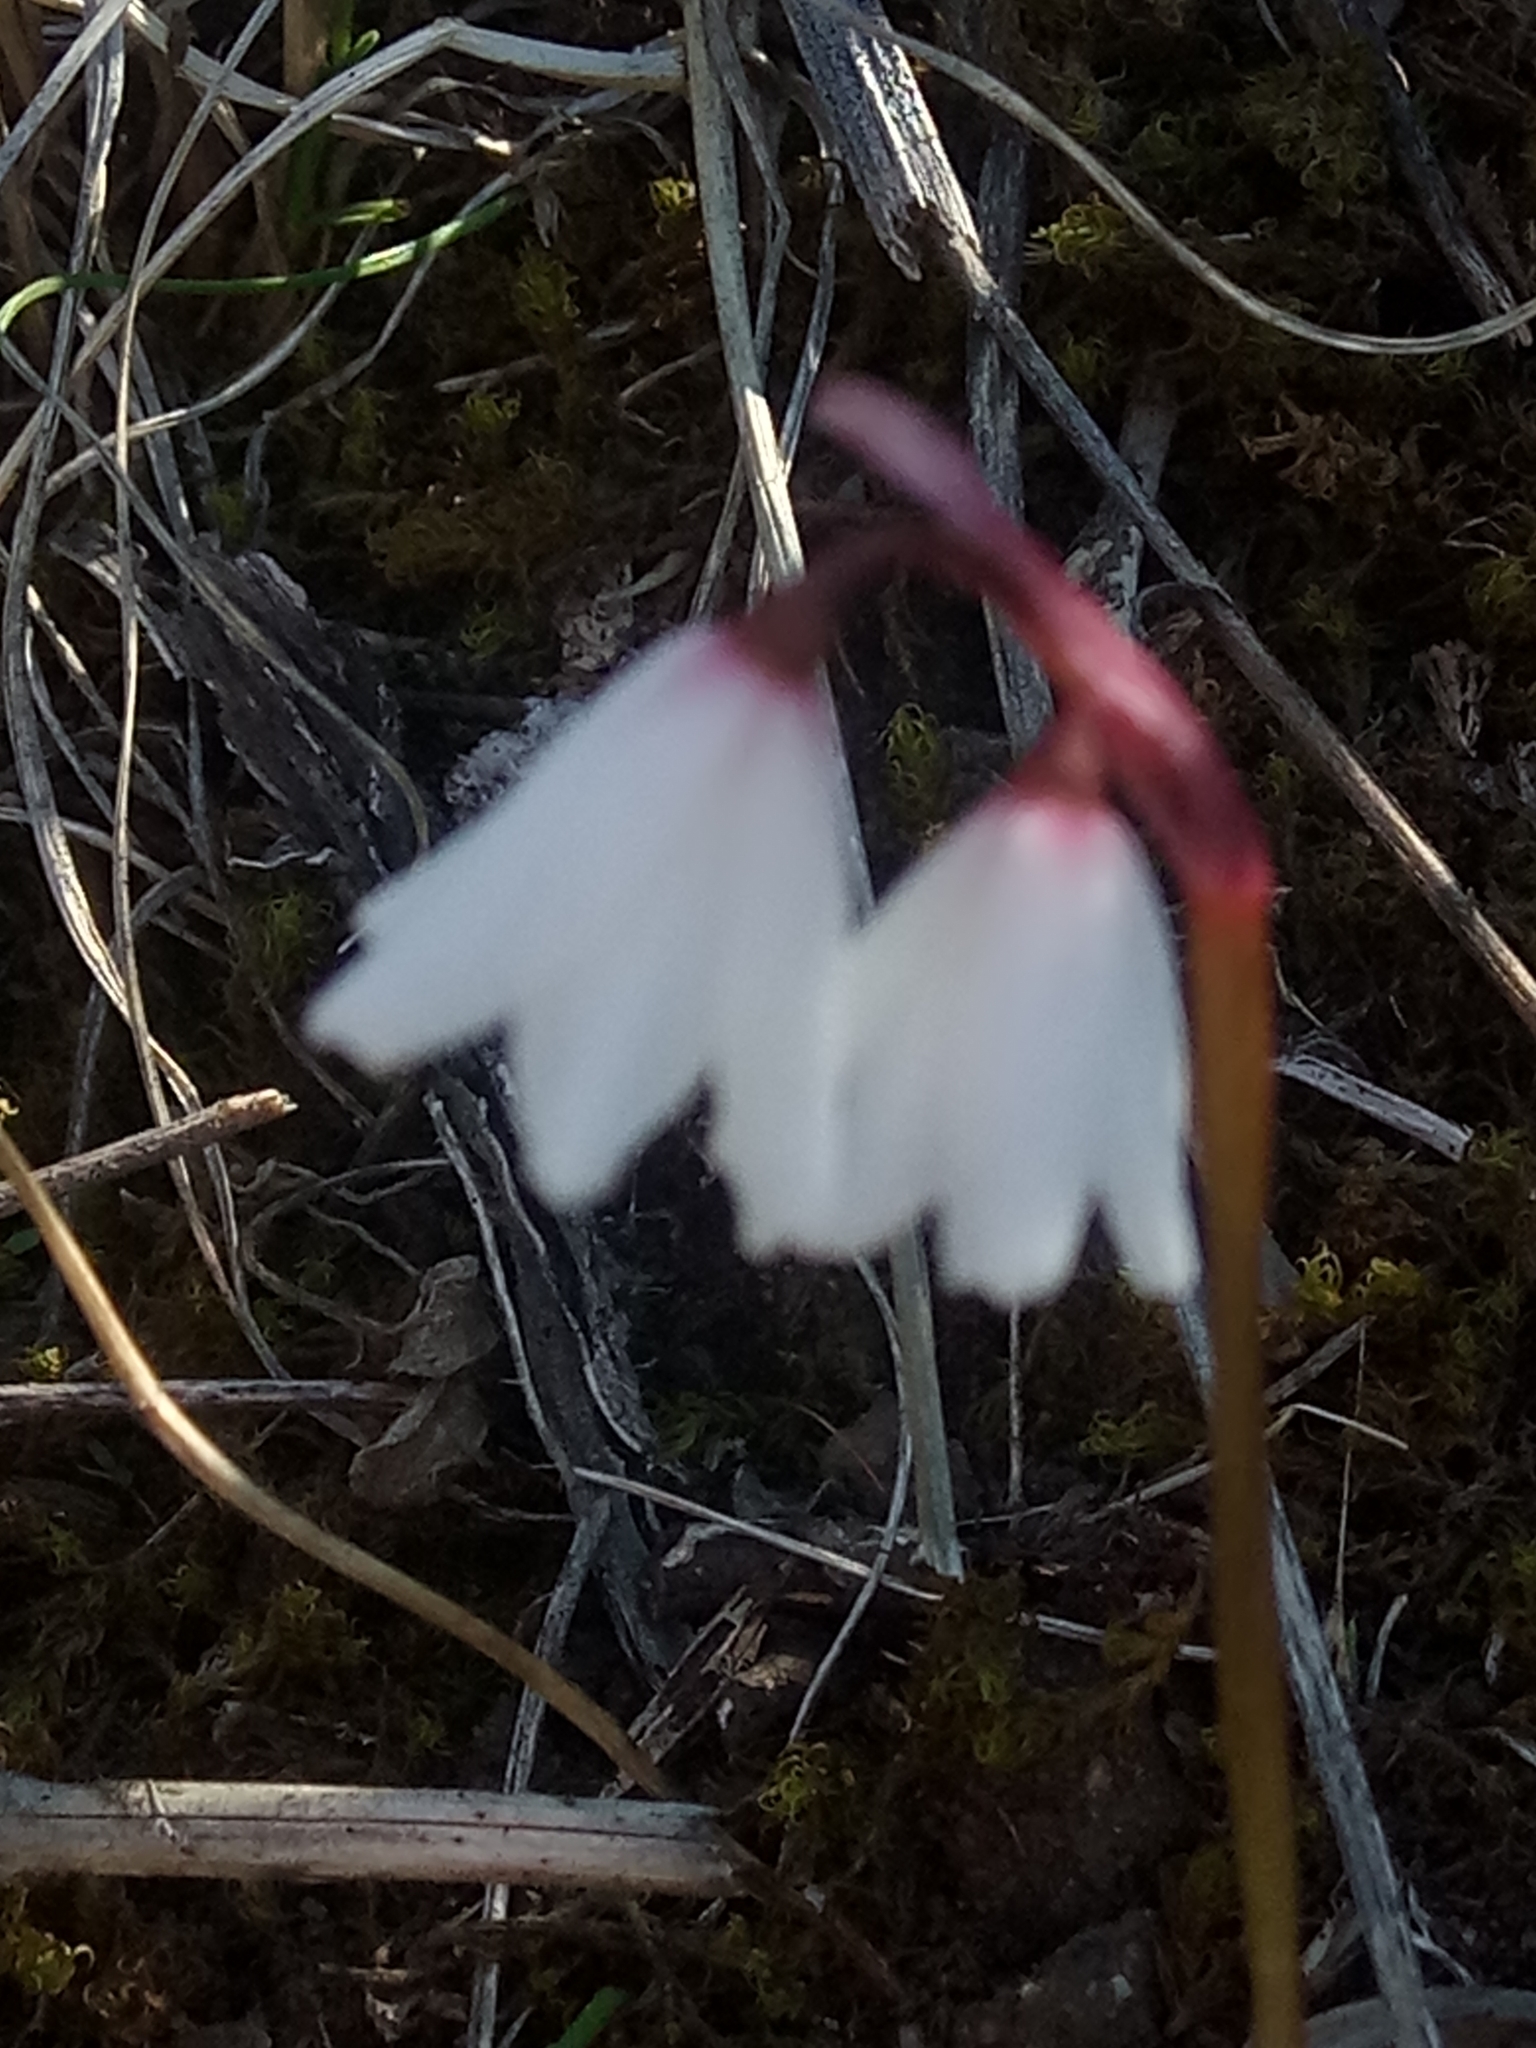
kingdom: Plantae
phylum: Tracheophyta
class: Liliopsida
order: Asparagales
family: Amaryllidaceae
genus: Acis
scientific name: Acis autumnalis
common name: Autumn snowflake
